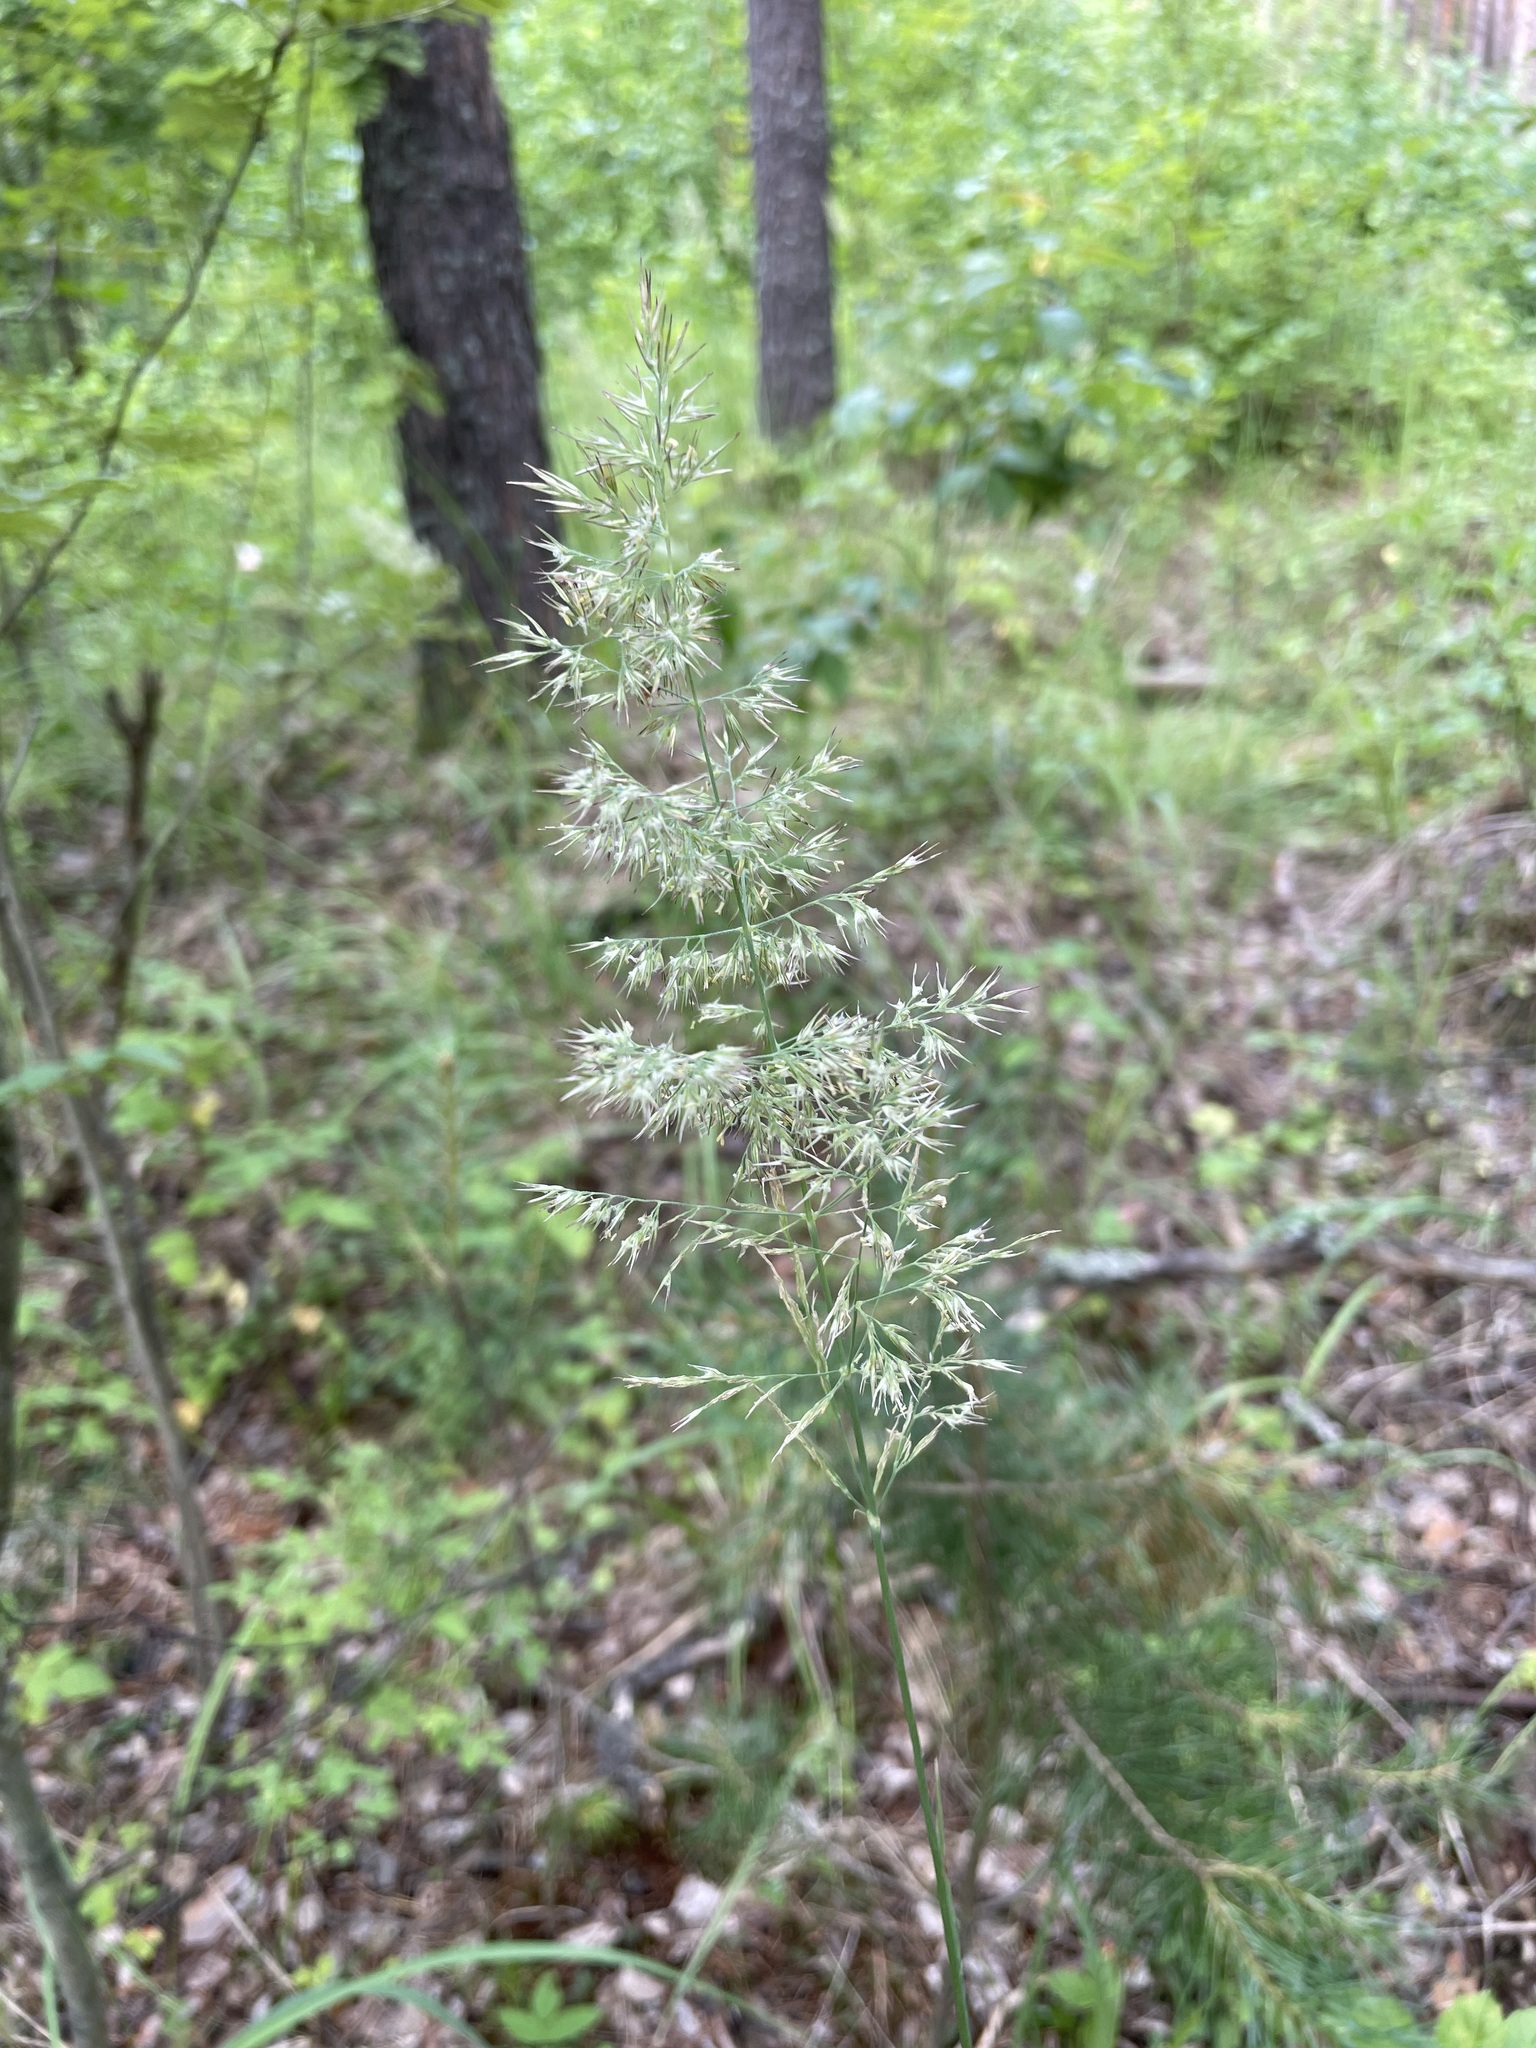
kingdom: Plantae
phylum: Tracheophyta
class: Liliopsida
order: Poales
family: Poaceae
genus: Calamagrostis
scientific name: Calamagrostis arundinacea
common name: Metskastik
